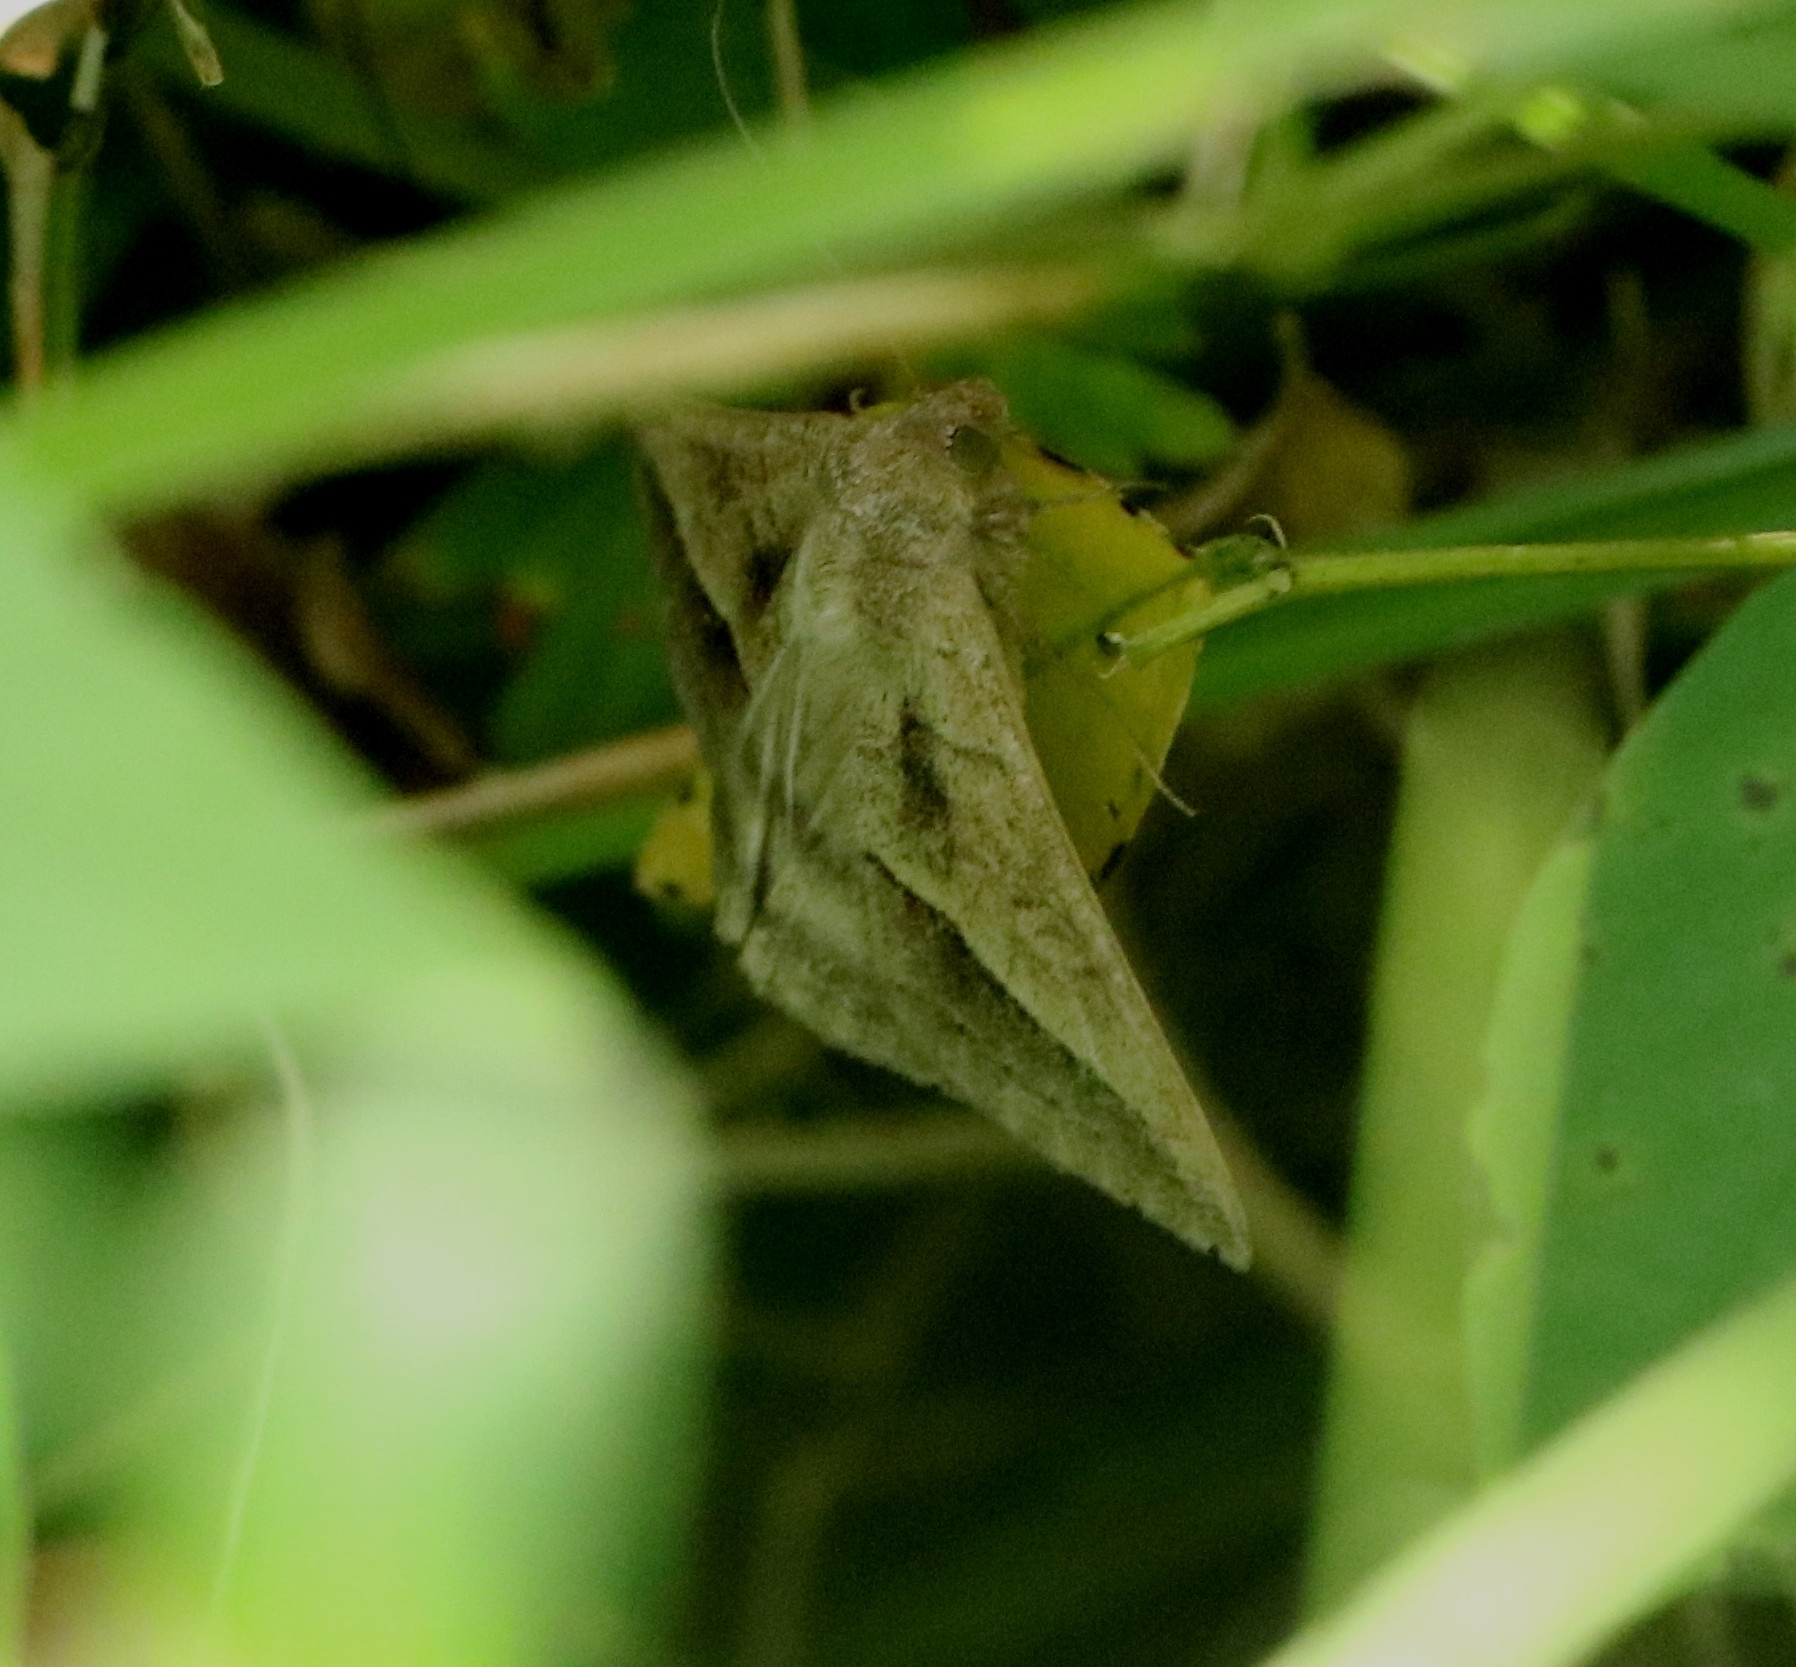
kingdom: Animalia
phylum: Arthropoda
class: Insecta
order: Lepidoptera
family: Erebidae
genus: Mocis
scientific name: Mocis frugalis
